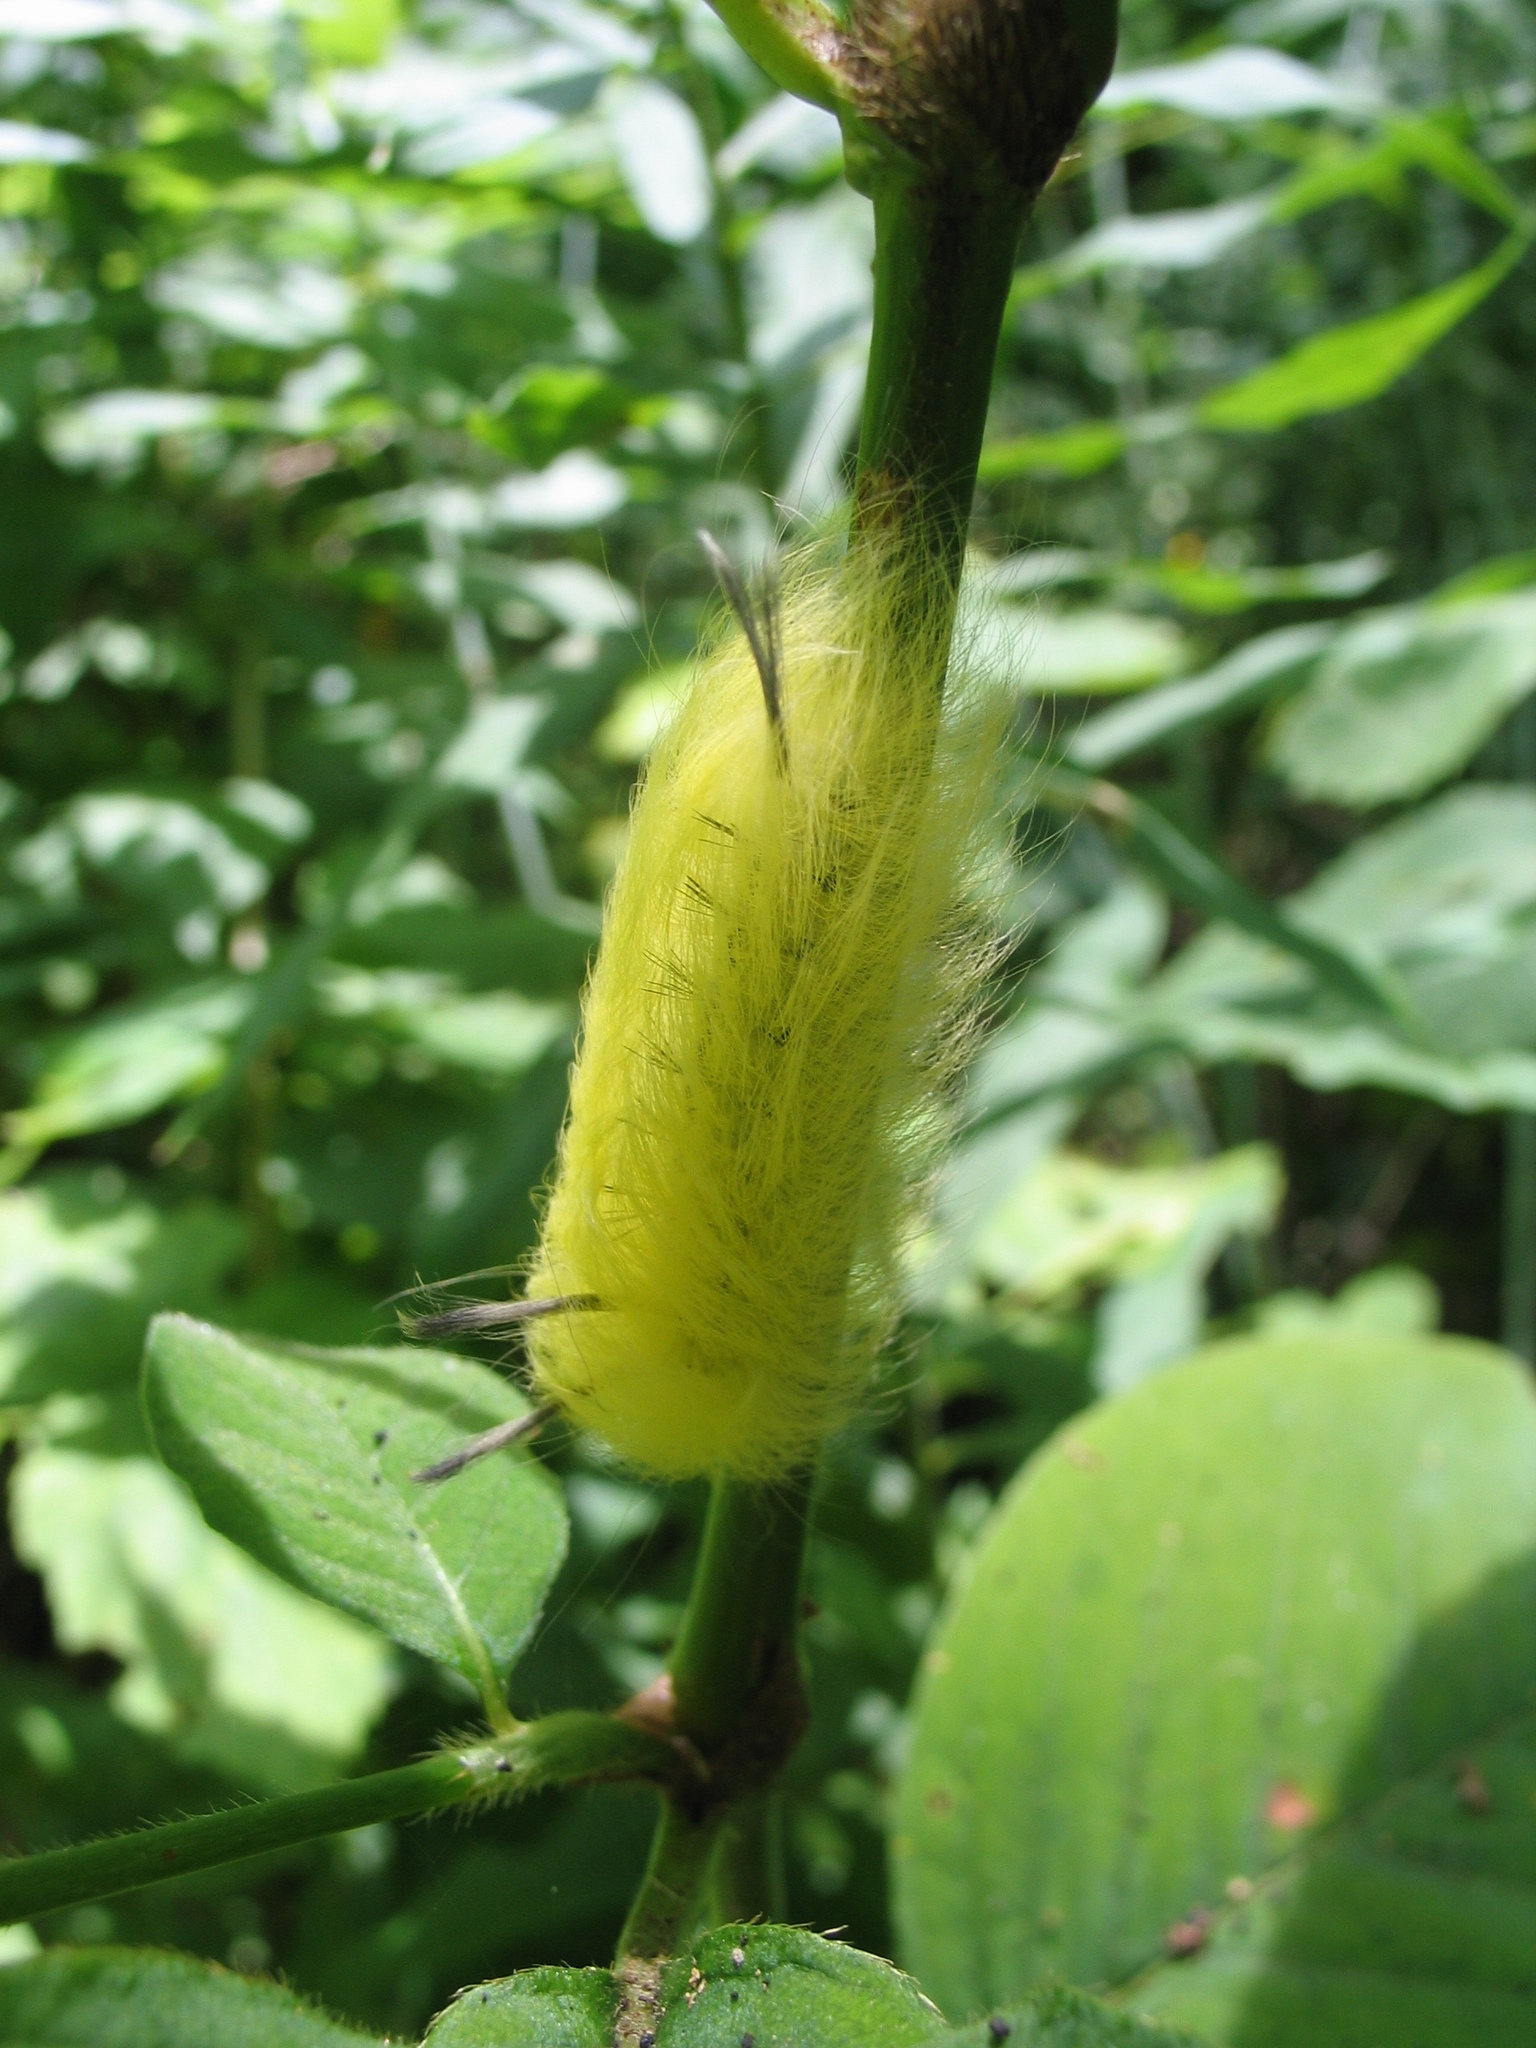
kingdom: Animalia
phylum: Arthropoda
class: Insecta
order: Lepidoptera
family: Apatelodidae
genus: Hygrochroa
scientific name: Hygrochroa Apatelodes torrefacta
